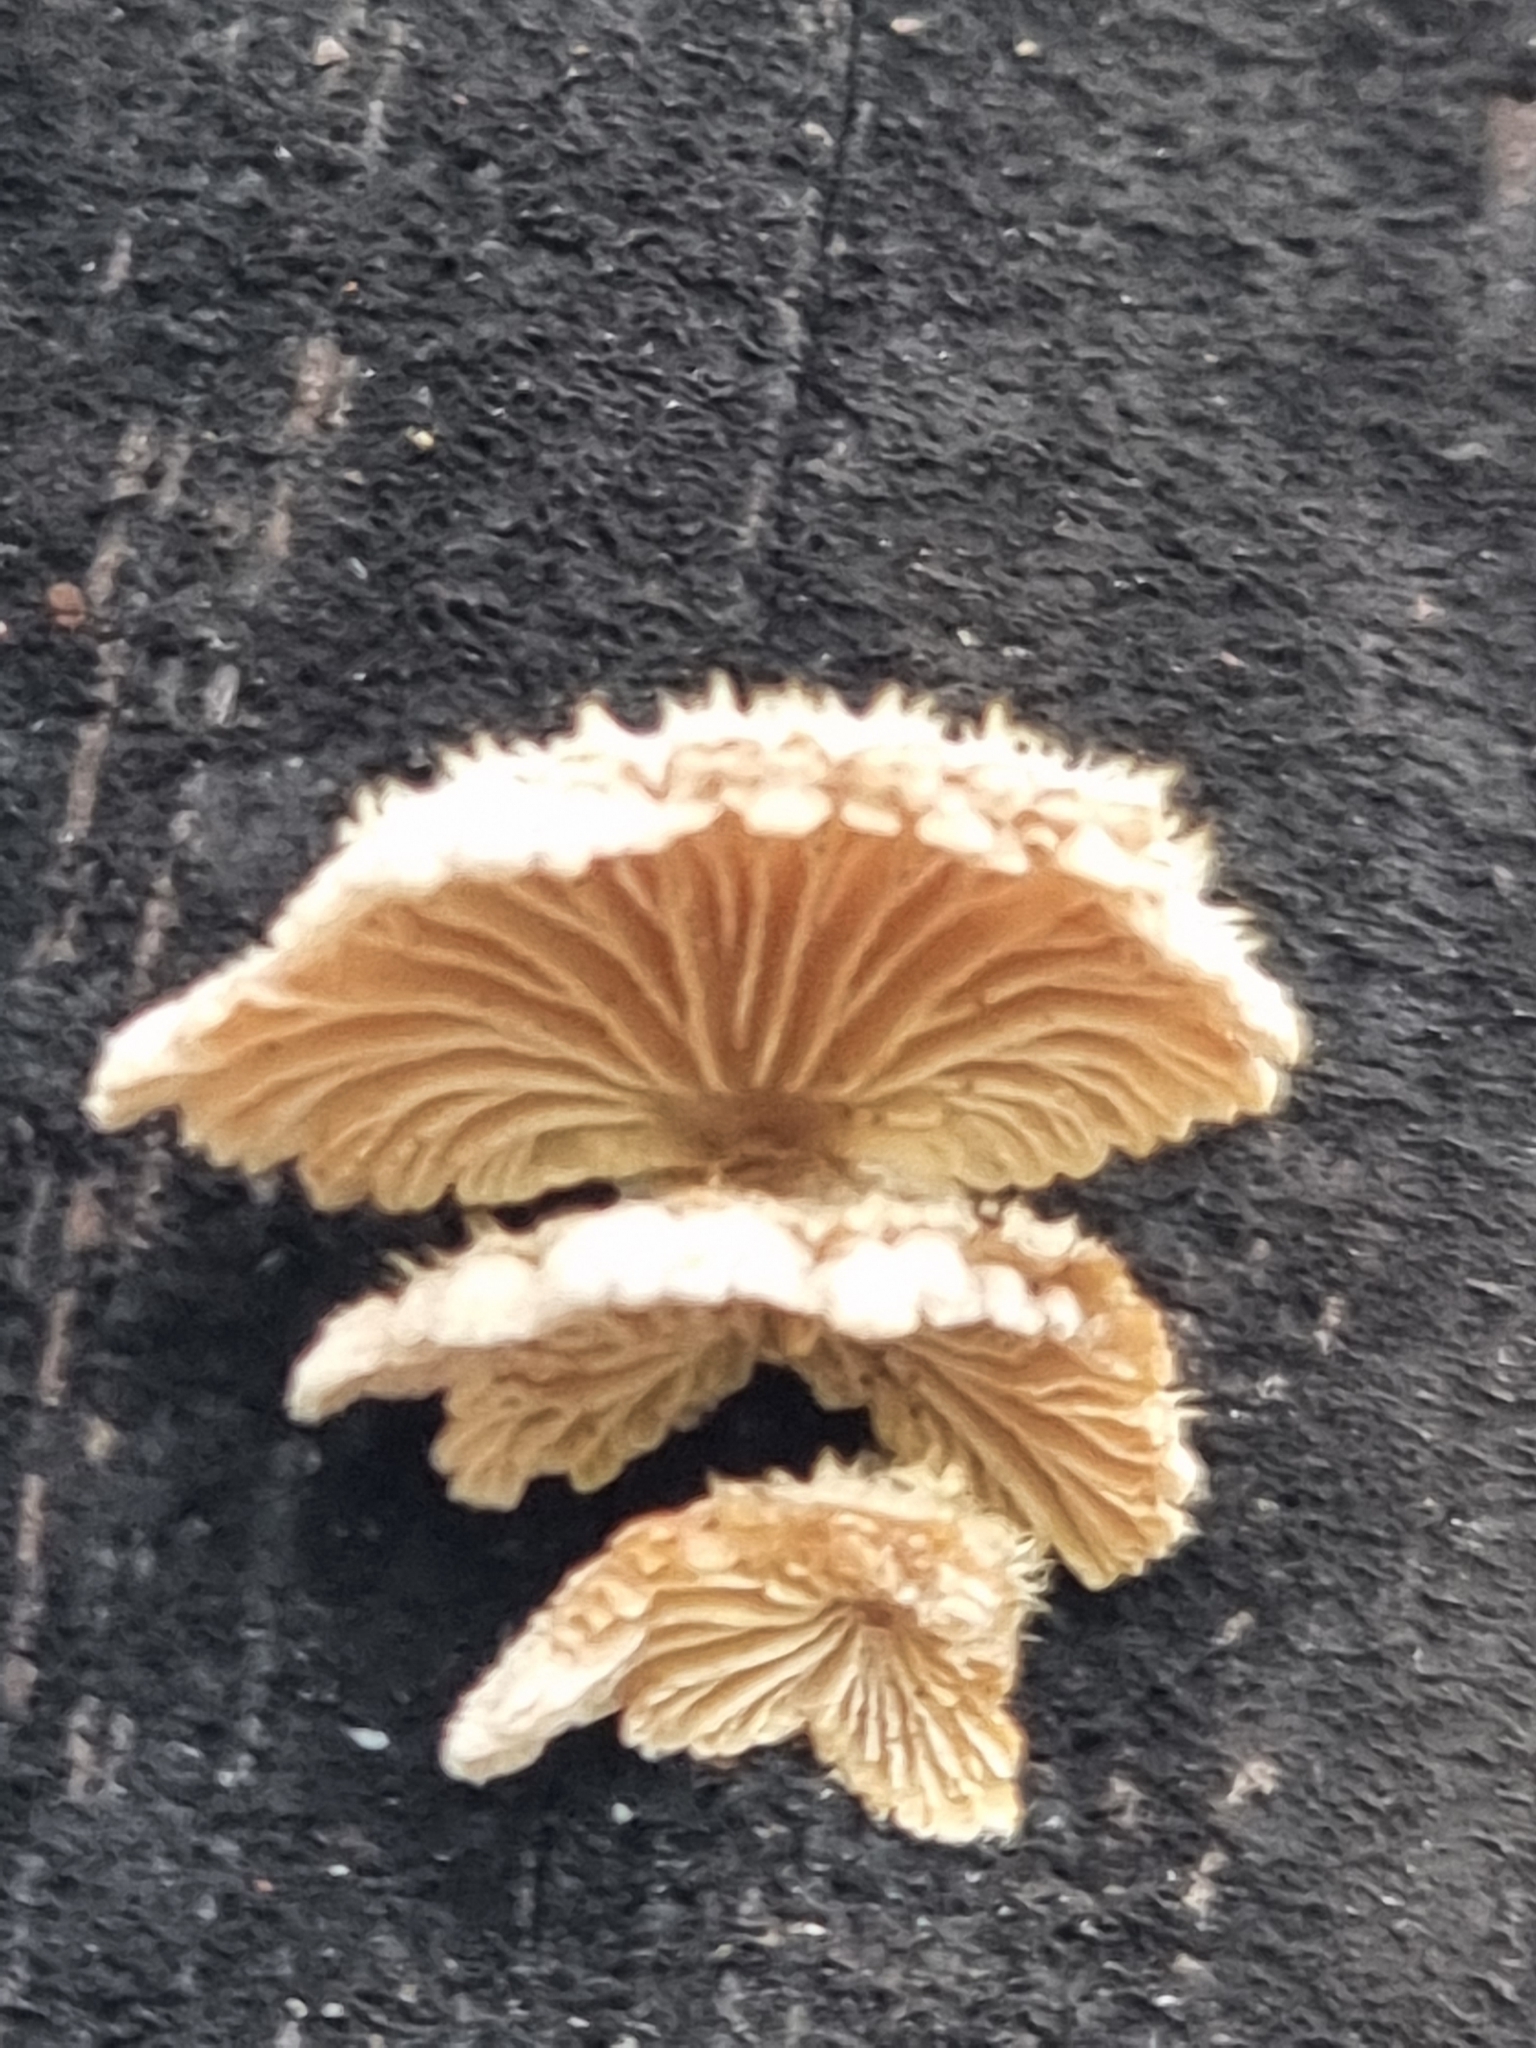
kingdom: Fungi
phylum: Basidiomycota
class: Agaricomycetes
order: Agaricales
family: Schizophyllaceae
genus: Schizophyllum
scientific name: Schizophyllum commune
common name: Common porecrust
